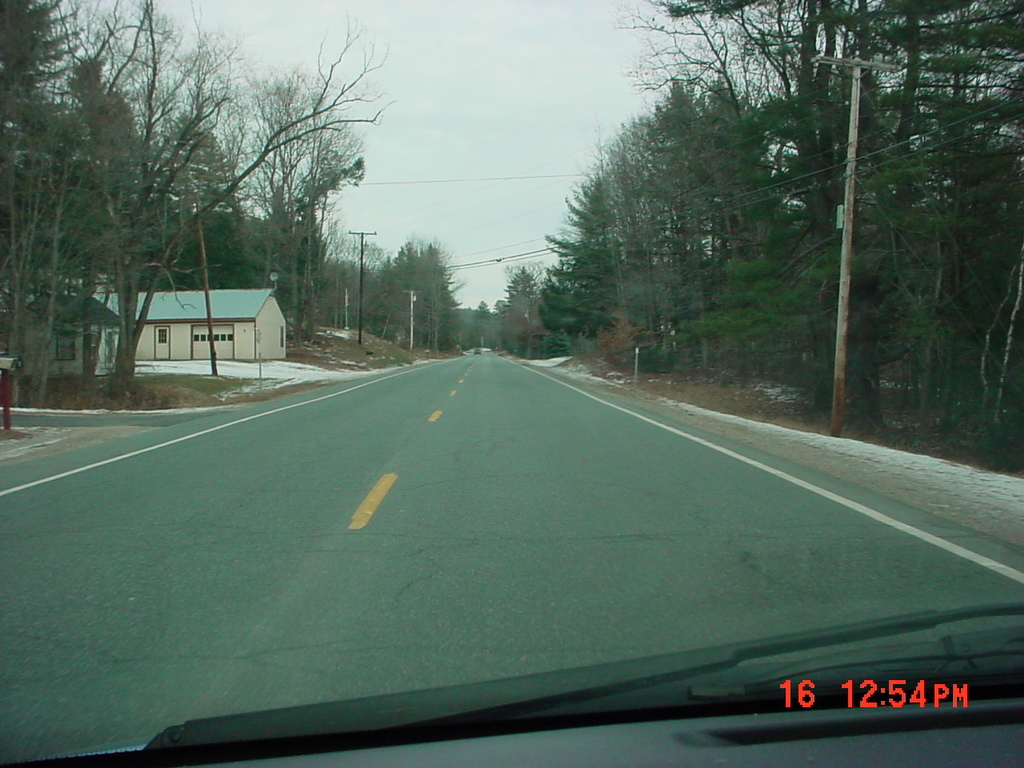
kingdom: Plantae
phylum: Tracheophyta
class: Pinopsida
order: Pinales
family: Pinaceae
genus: Pinus
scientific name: Pinus strobus
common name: Weymouth pine
